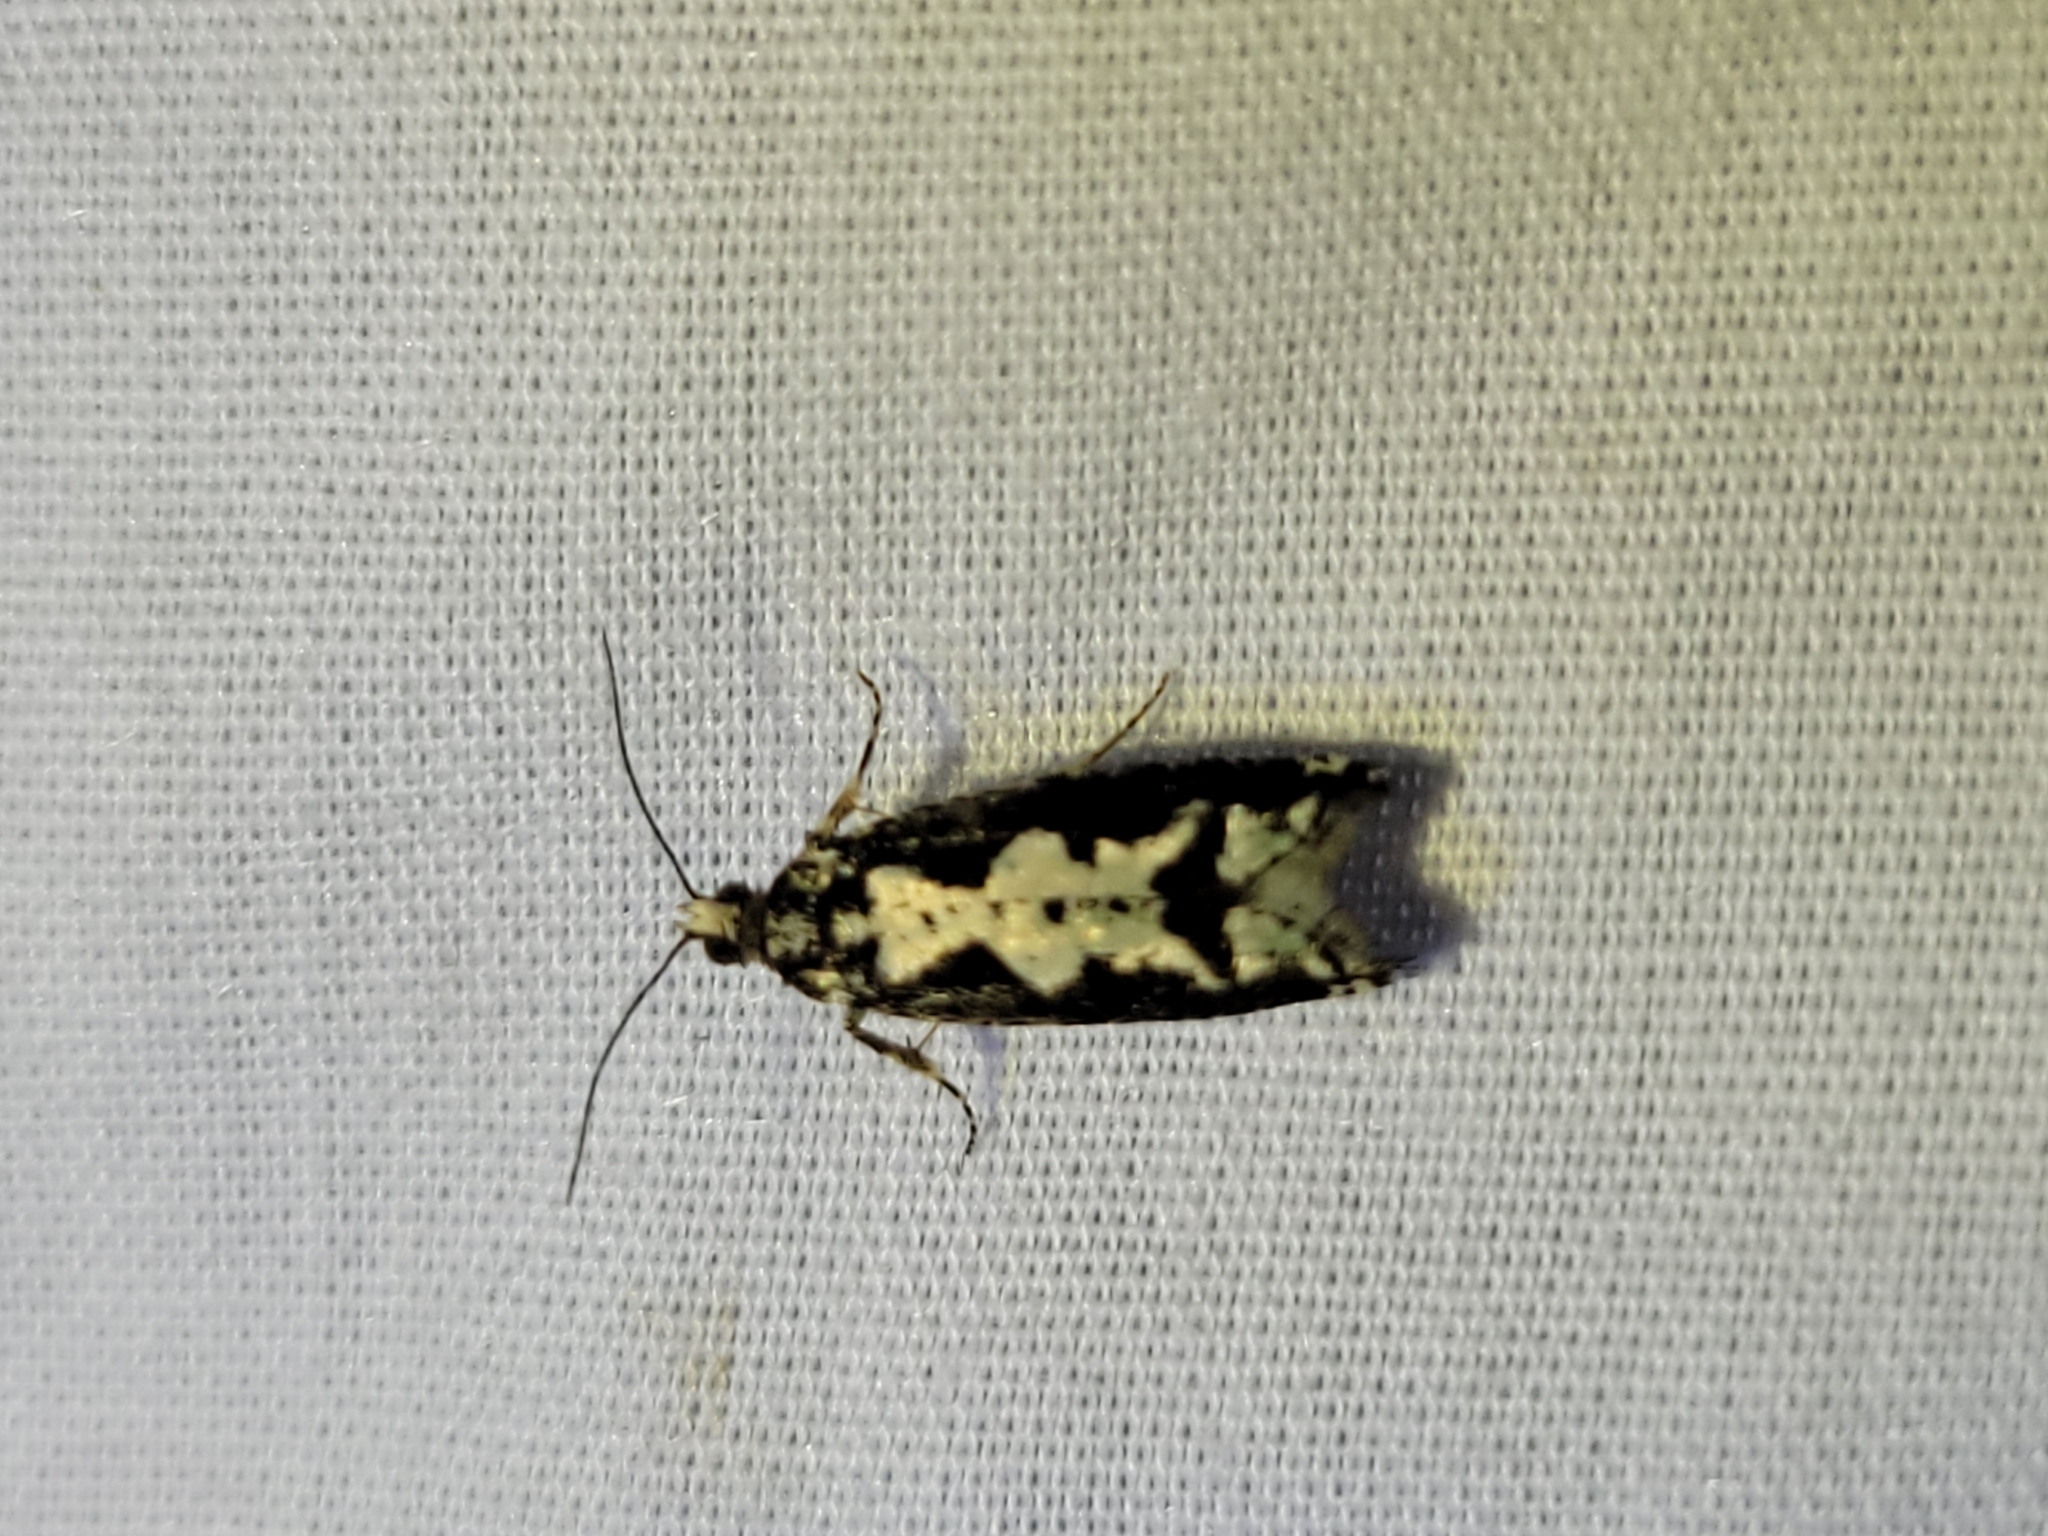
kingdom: Animalia
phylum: Arthropoda
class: Insecta
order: Lepidoptera
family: Tortricidae
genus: Chimoptesis
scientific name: Chimoptesis pennsylvaniana
